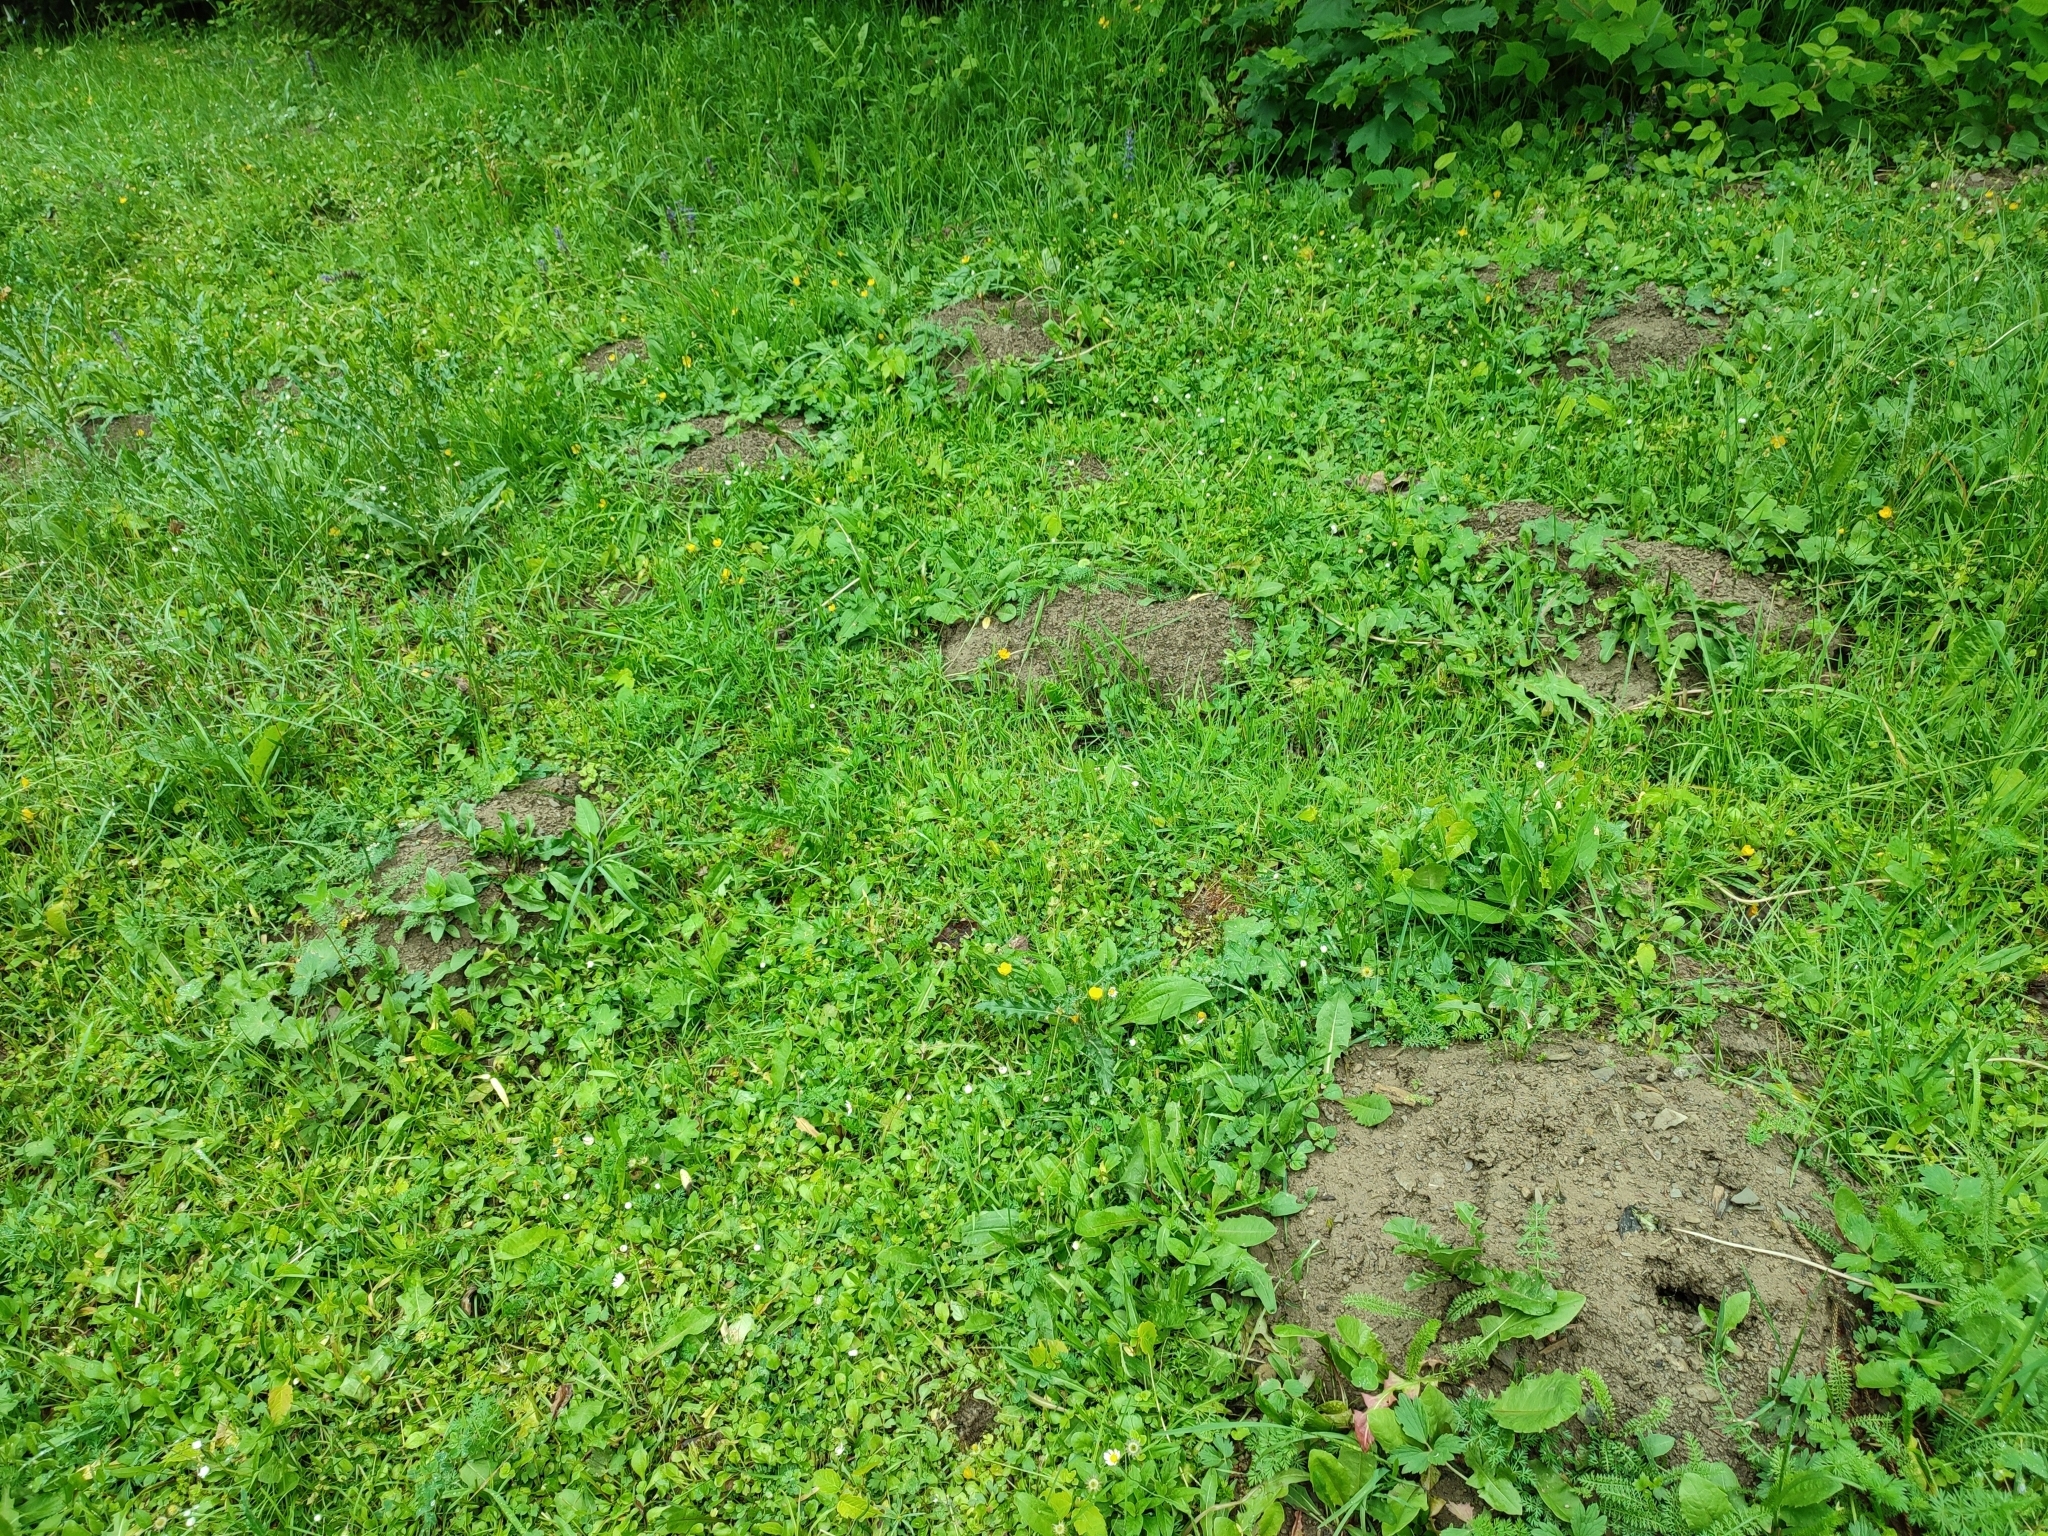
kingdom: Animalia
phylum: Chordata
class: Mammalia
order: Soricomorpha
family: Talpidae
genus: Talpa
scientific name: Talpa europaea
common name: European mole
